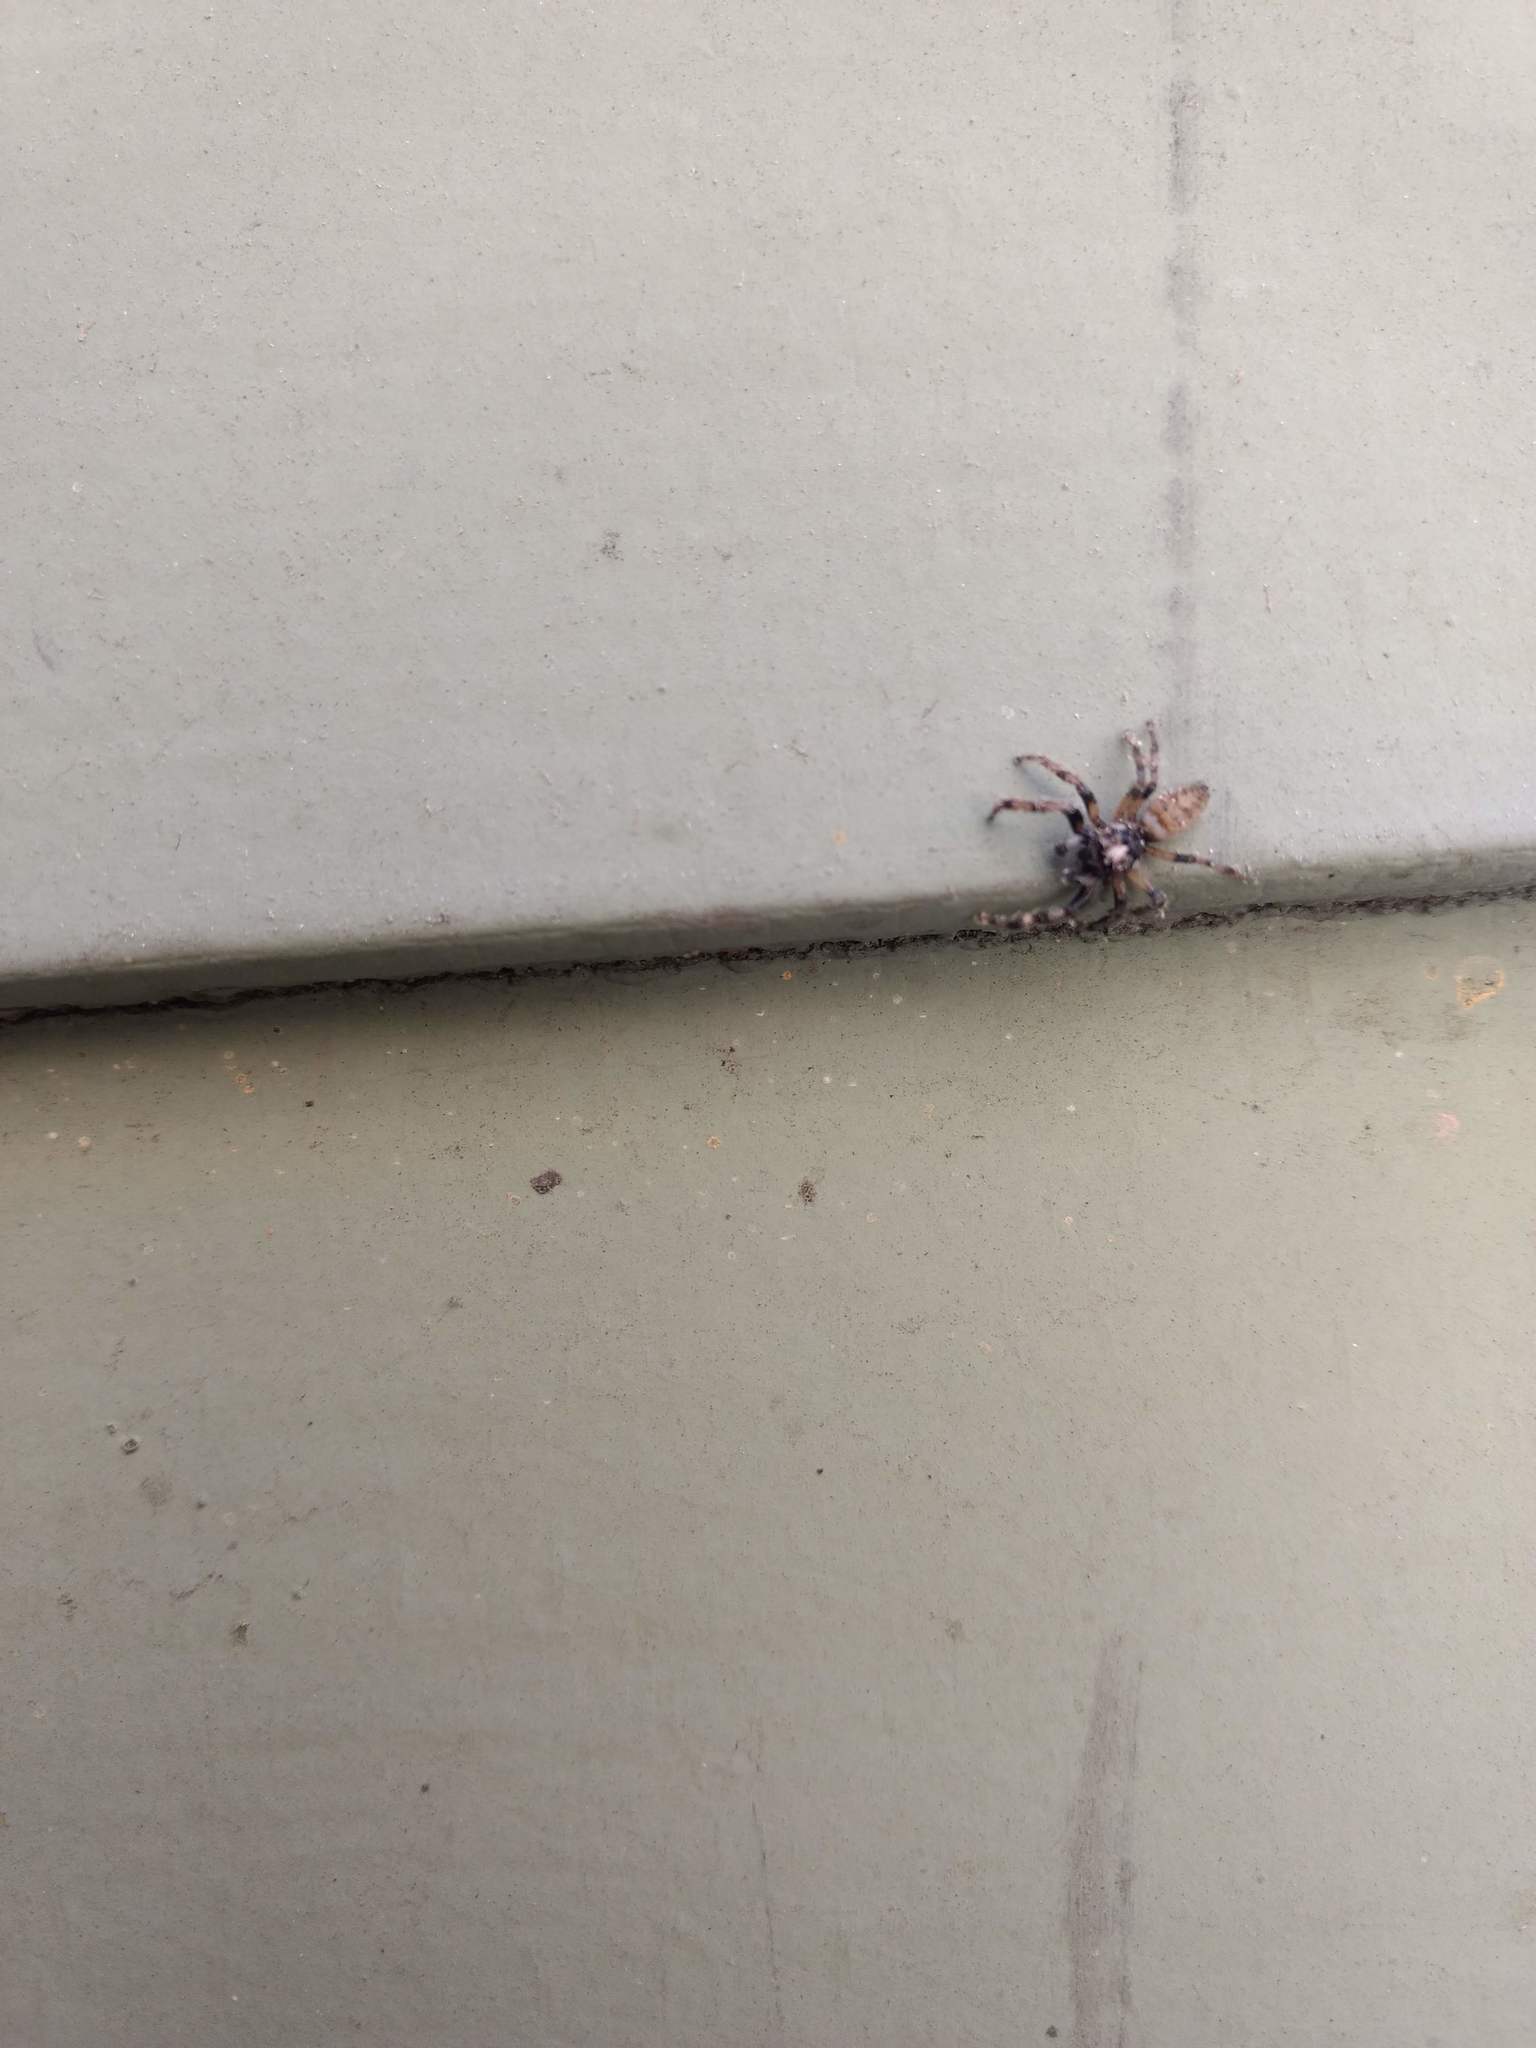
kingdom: Animalia
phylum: Arthropoda
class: Arachnida
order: Araneae
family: Salticidae
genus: Colonus
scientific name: Colonus hesperus
